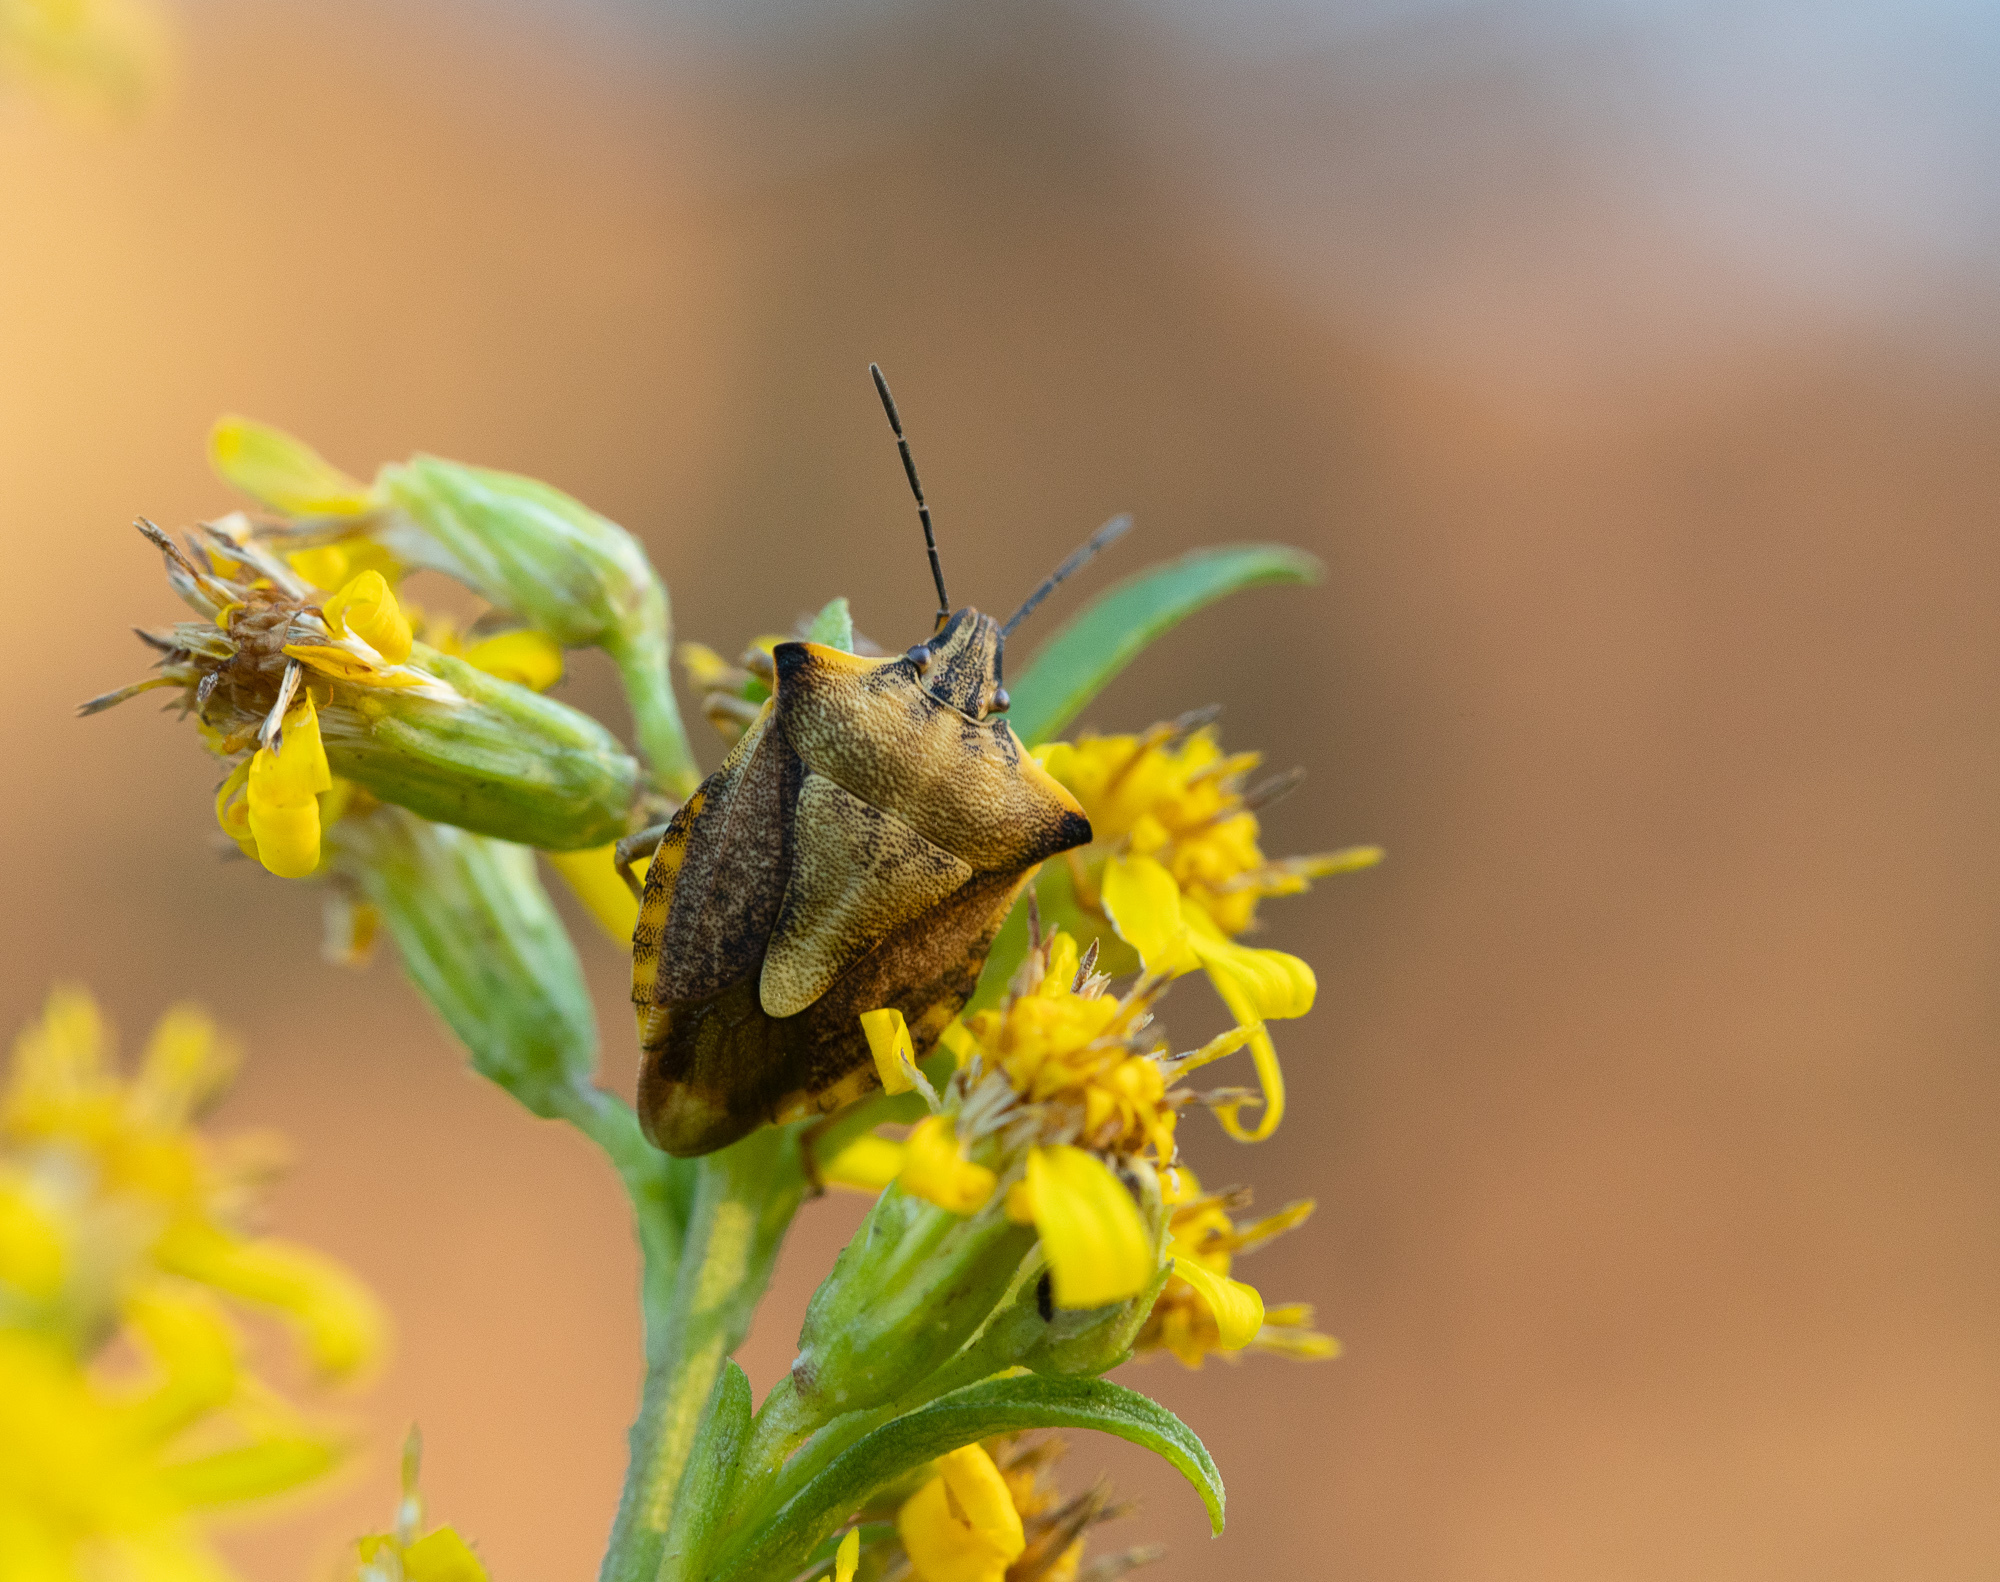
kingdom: Animalia
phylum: Arthropoda
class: Insecta
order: Hemiptera
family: Pentatomidae
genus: Carpocoris
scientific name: Carpocoris fuscispinus
